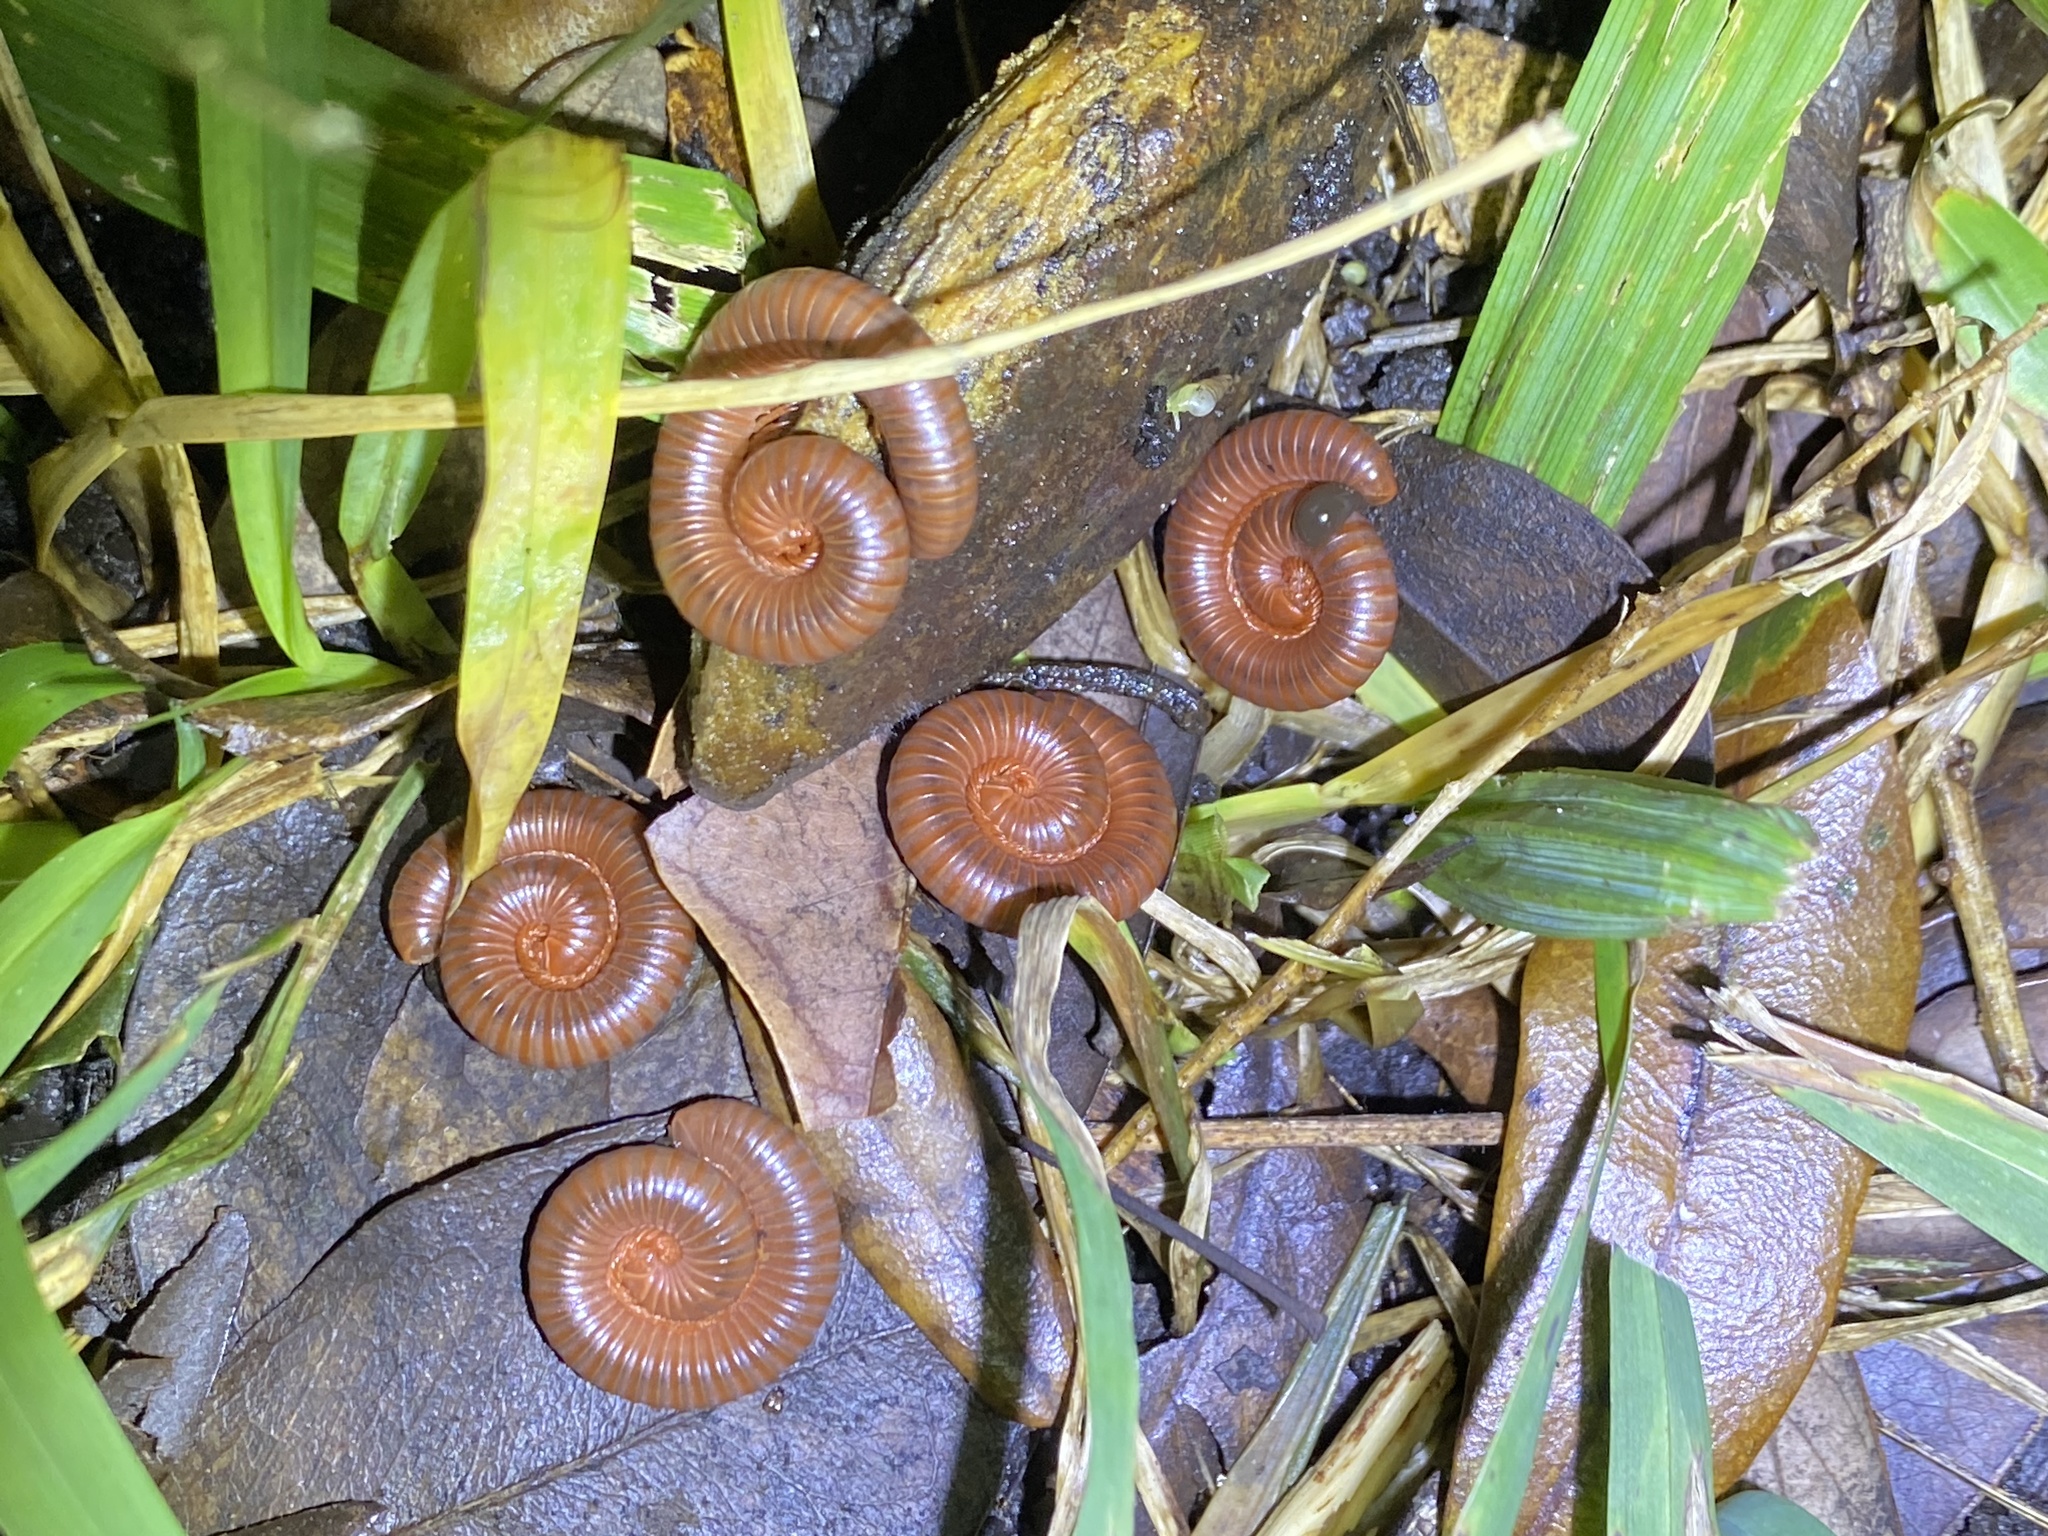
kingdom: Animalia
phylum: Arthropoda
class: Diplopoda
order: Spirobolida
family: Pachybolidae
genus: Trigoniulus
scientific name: Trigoniulus corallinus
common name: Millipede
